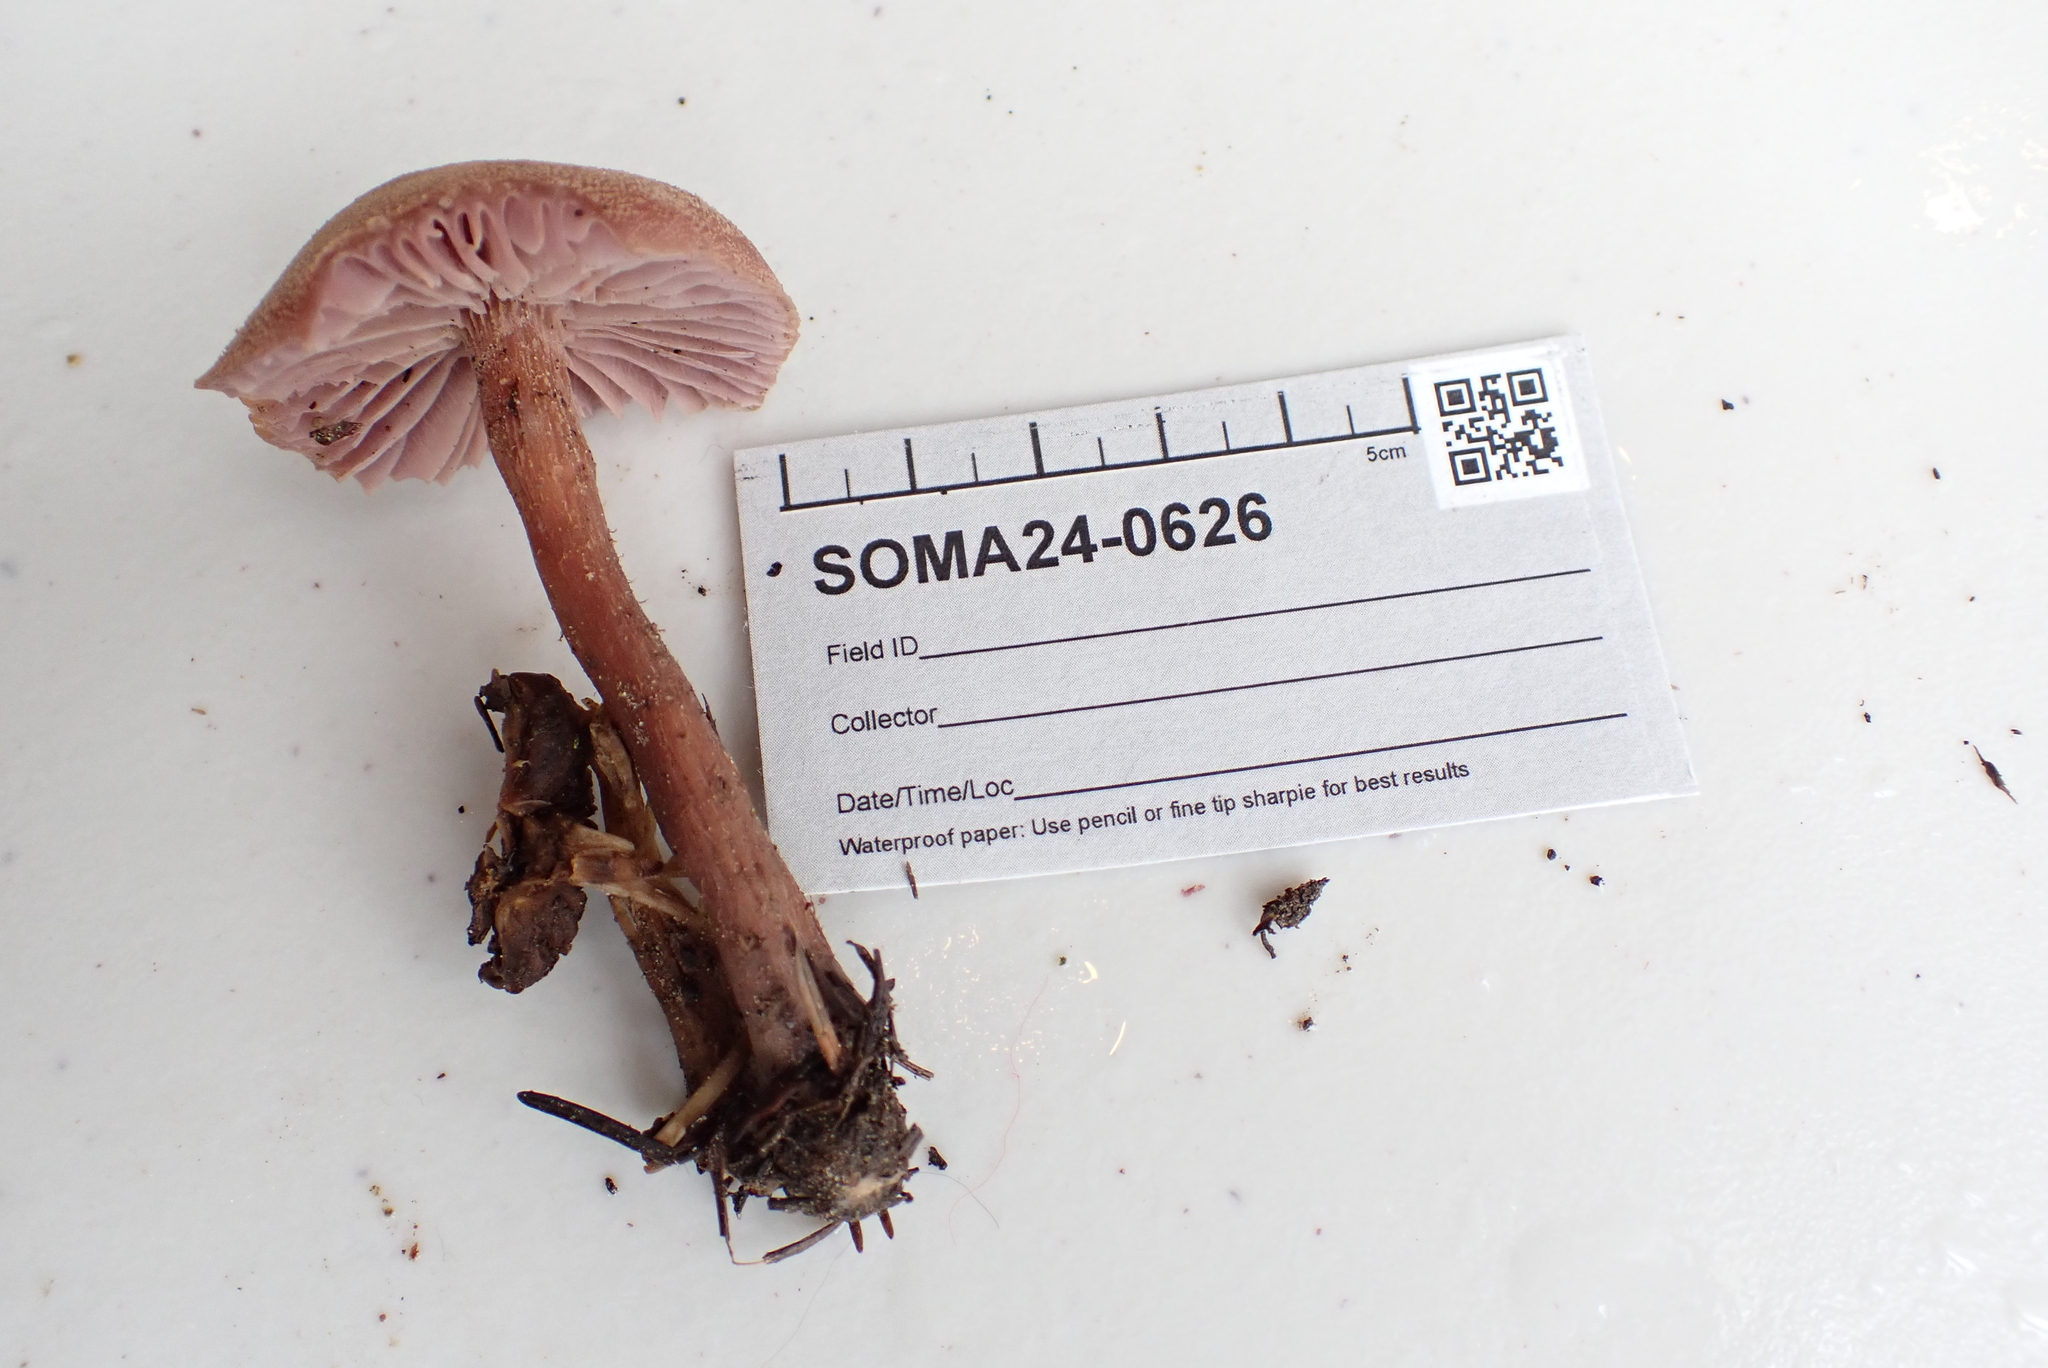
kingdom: Fungi
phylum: Basidiomycota
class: Agaricomycetes
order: Agaricales
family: Hydnangiaceae
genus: Laccaria
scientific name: Laccaria amethysteo-occidentalis
